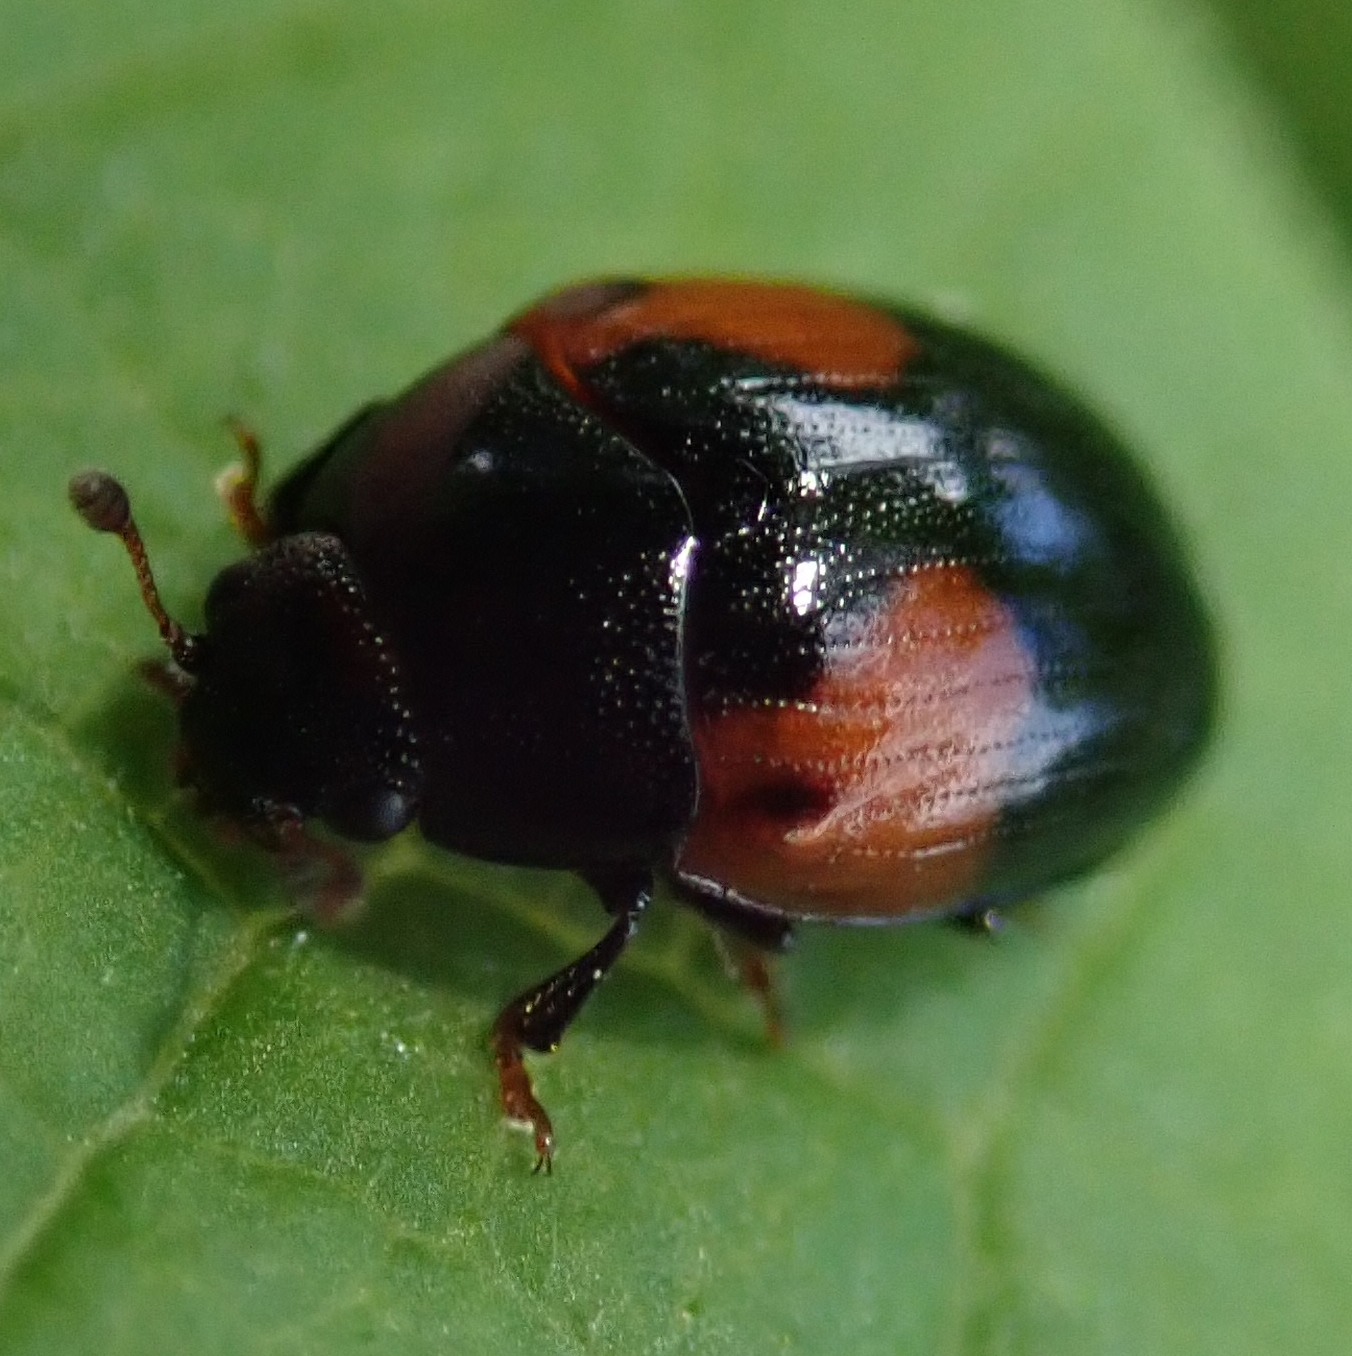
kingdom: Animalia
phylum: Arthropoda
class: Insecta
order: Coleoptera
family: Erotylidae
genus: Tritoma
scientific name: Tritoma bipustulata
